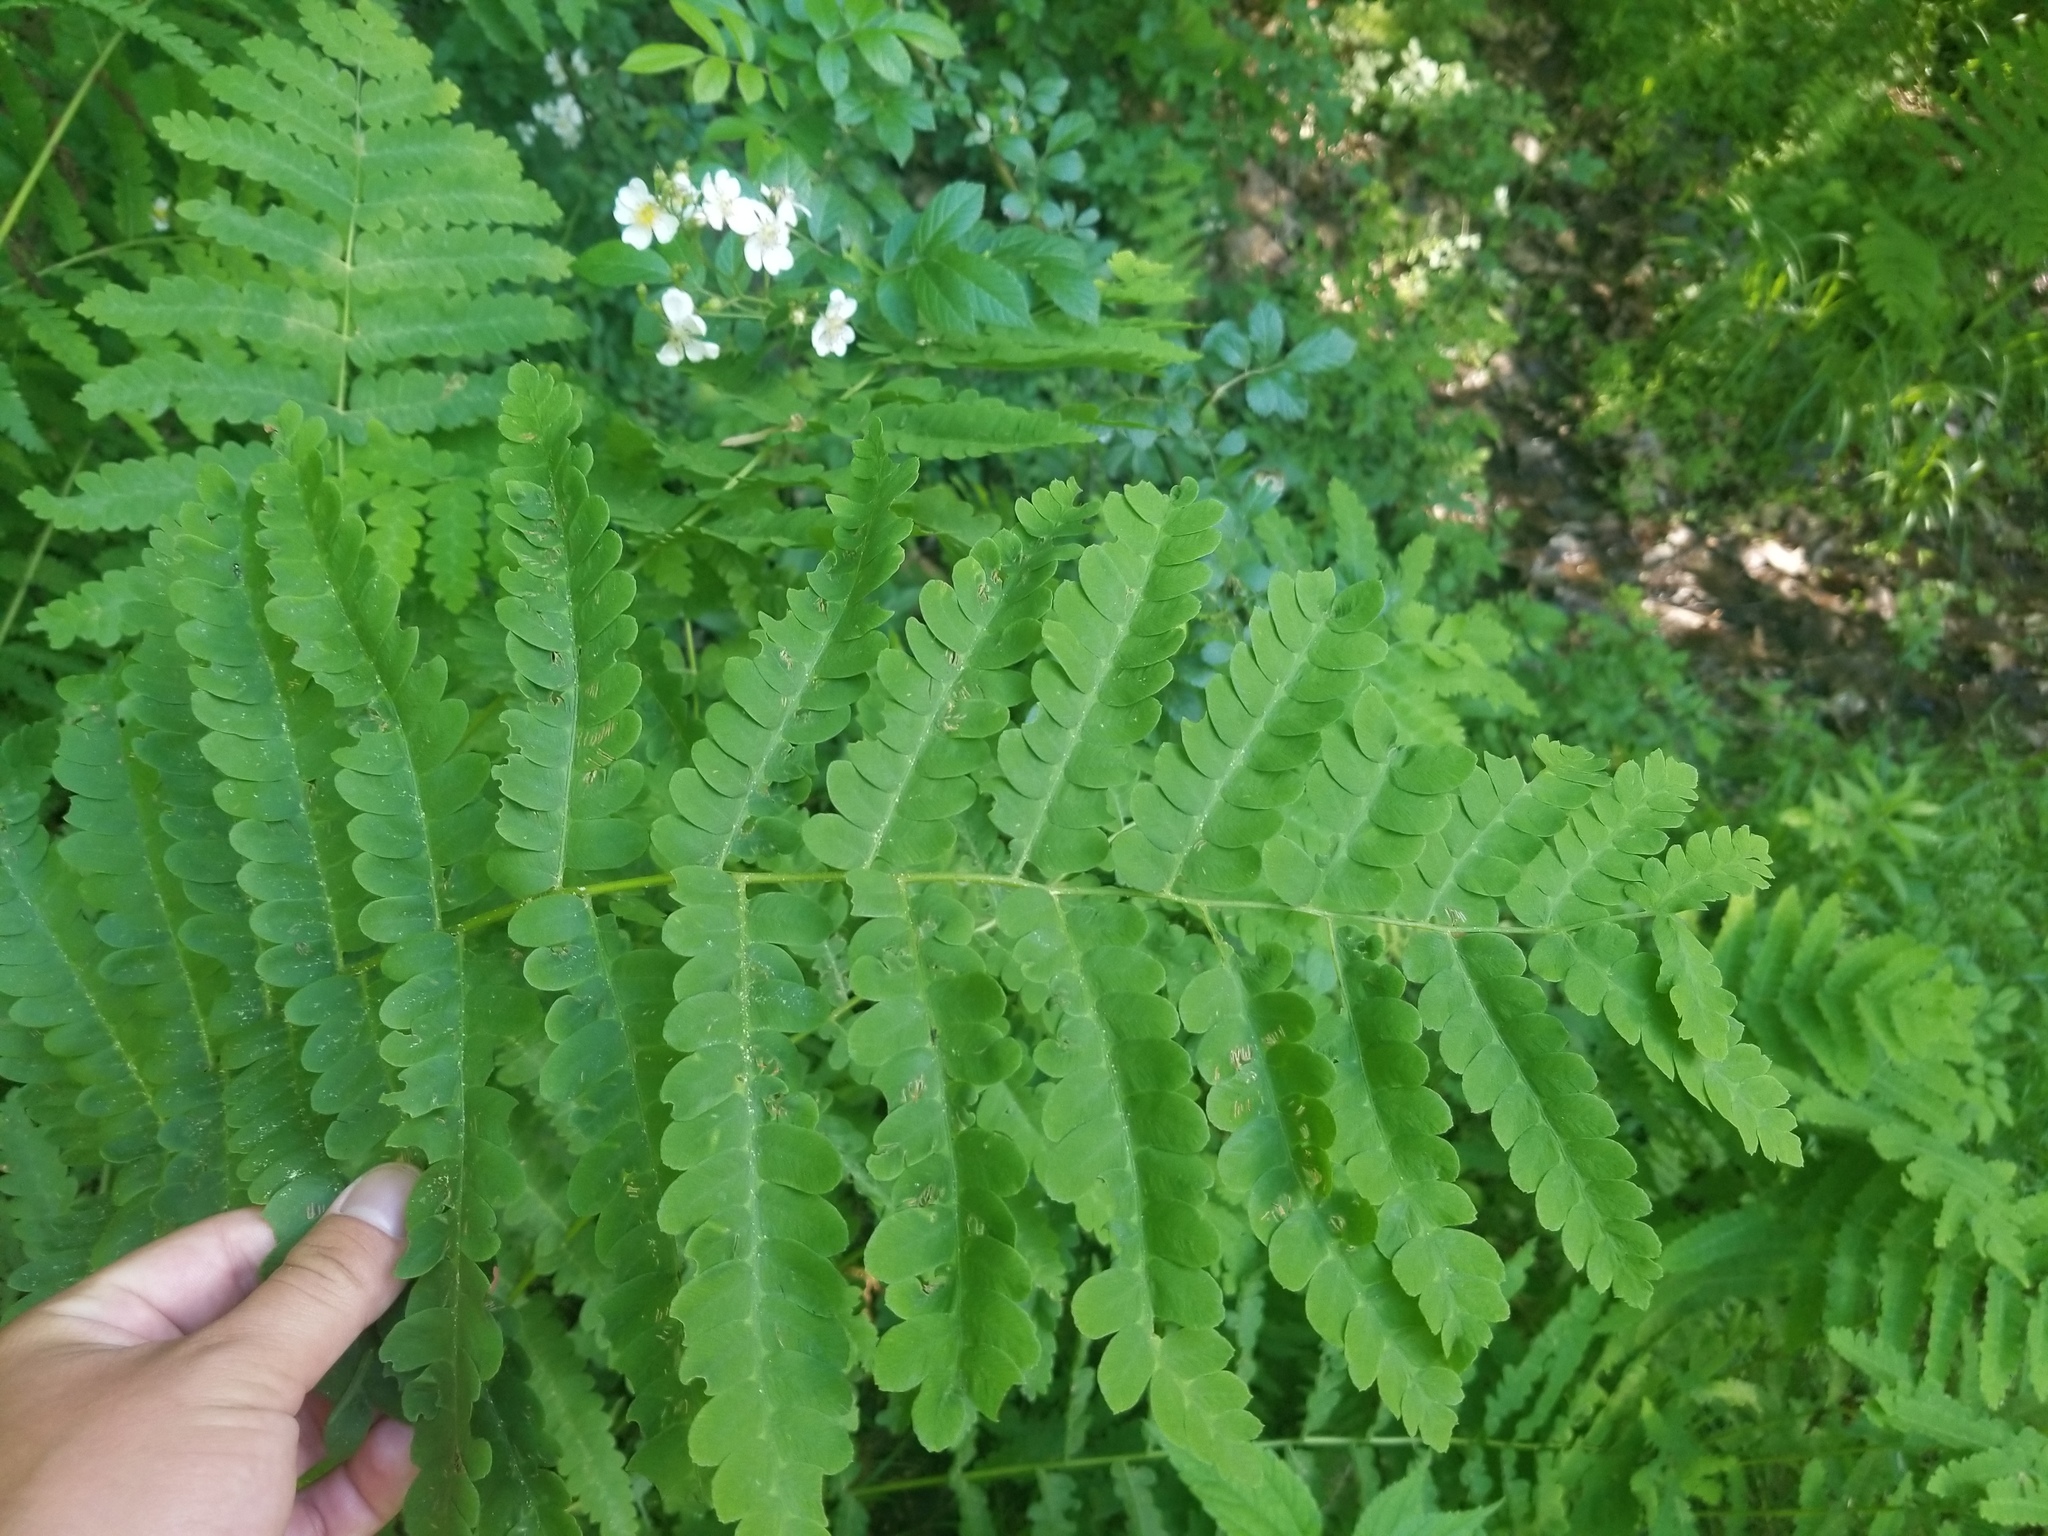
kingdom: Plantae
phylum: Tracheophyta
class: Polypodiopsida
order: Osmundales
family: Osmundaceae
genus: Claytosmunda
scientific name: Claytosmunda claytoniana
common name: Clayton's fern
